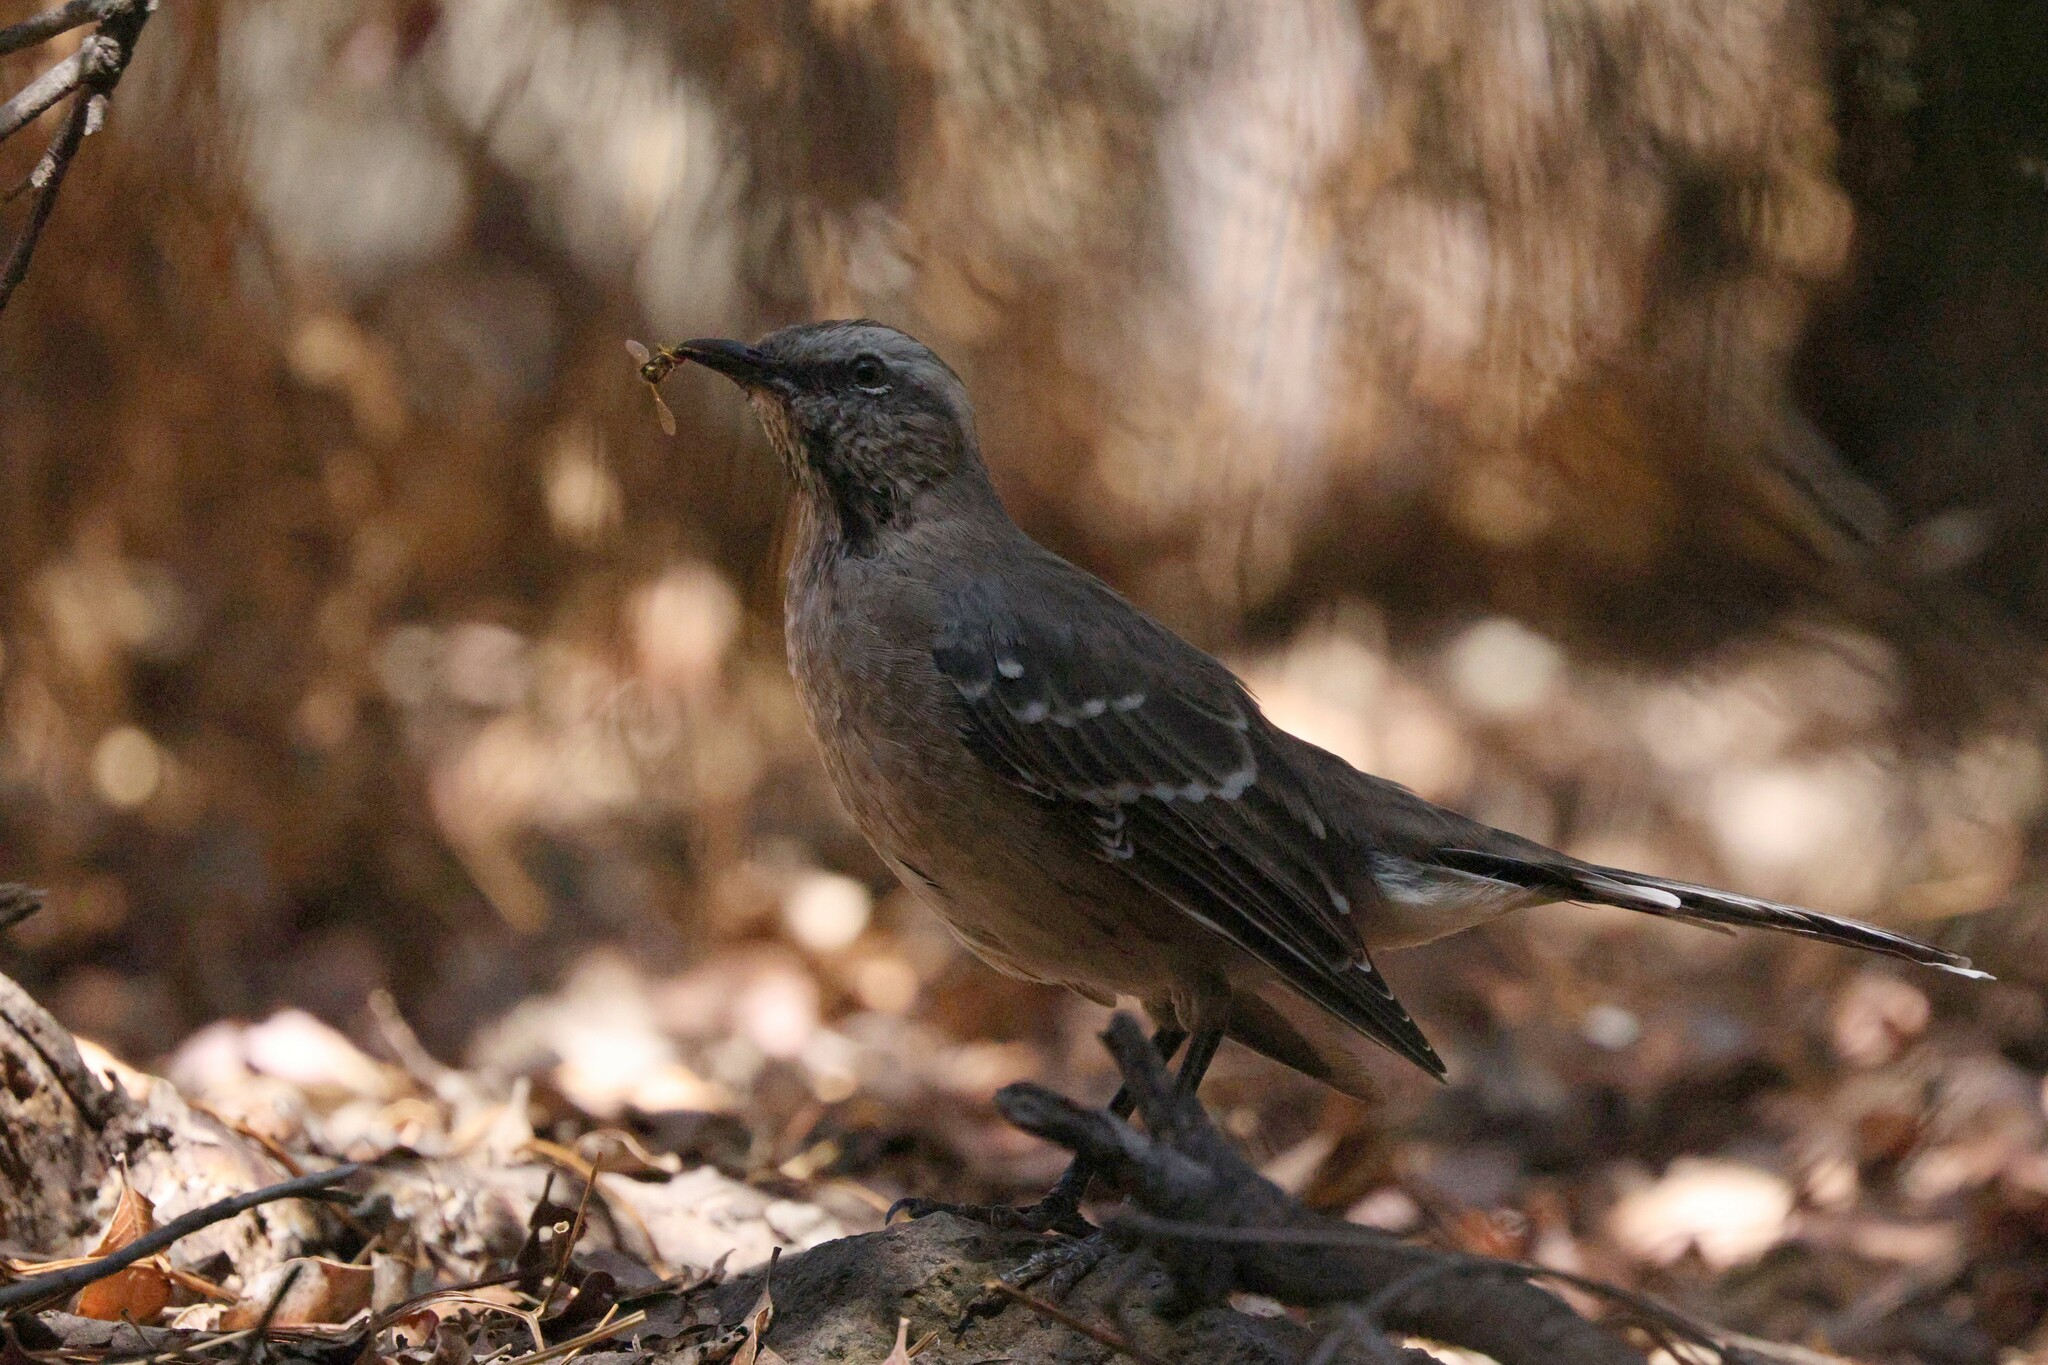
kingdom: Animalia
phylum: Chordata
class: Aves
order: Passeriformes
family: Mimidae
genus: Mimus
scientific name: Mimus thenca
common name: Chilean mockingbird
